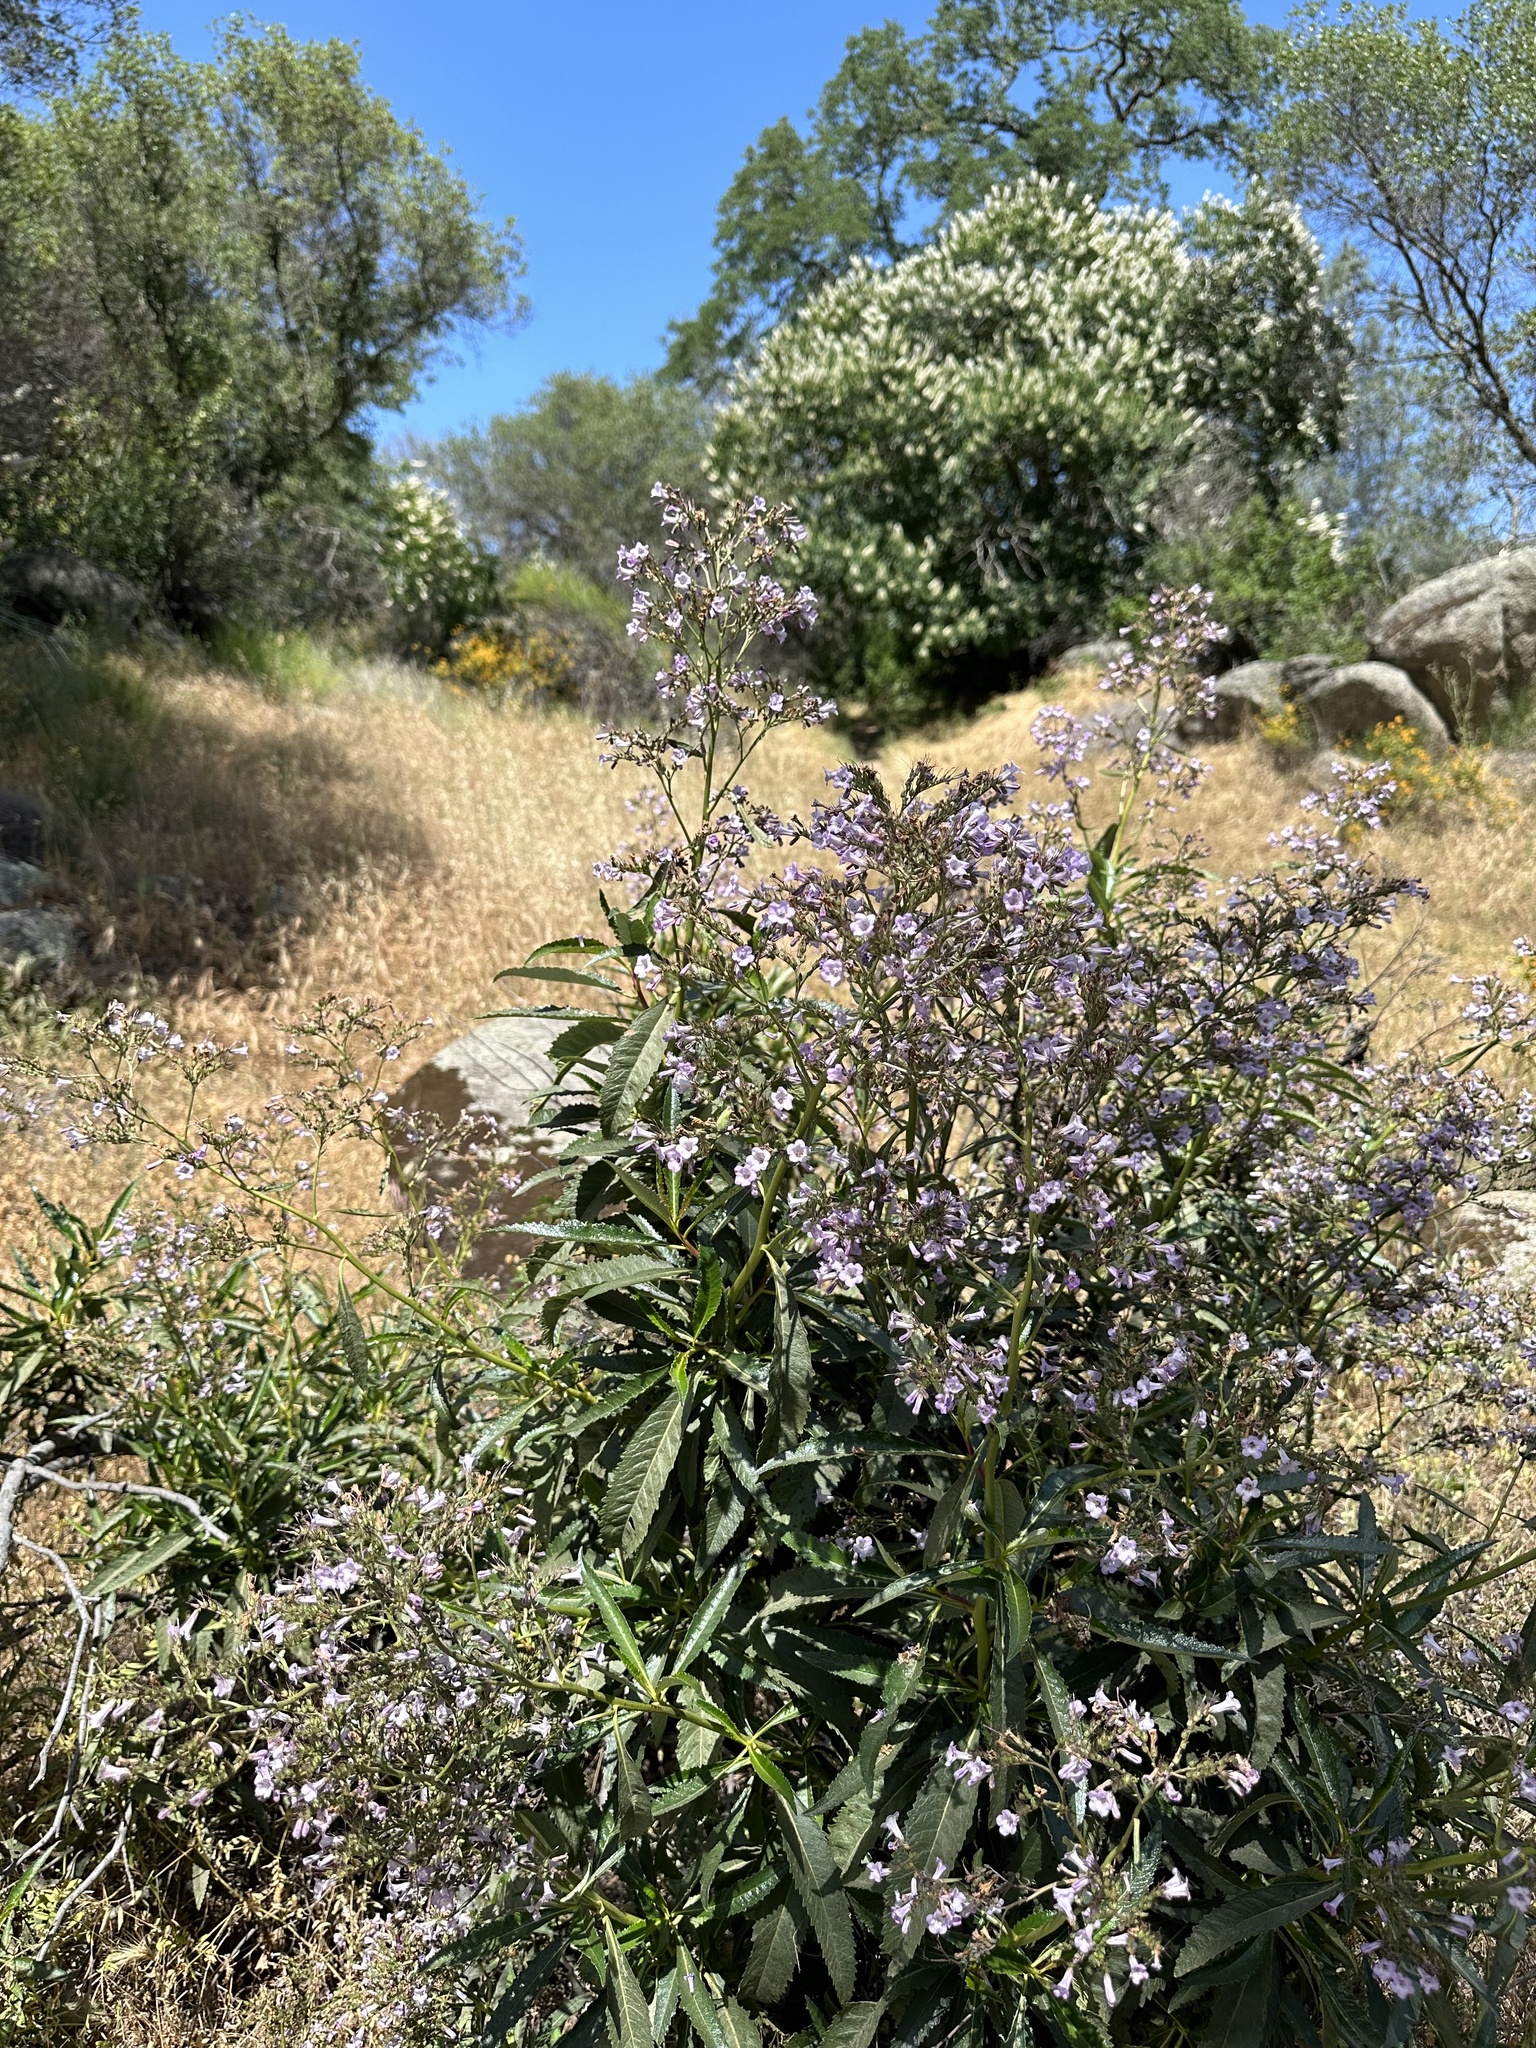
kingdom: Plantae
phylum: Tracheophyta
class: Magnoliopsida
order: Boraginales
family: Namaceae
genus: Eriodictyon
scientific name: Eriodictyon californicum
